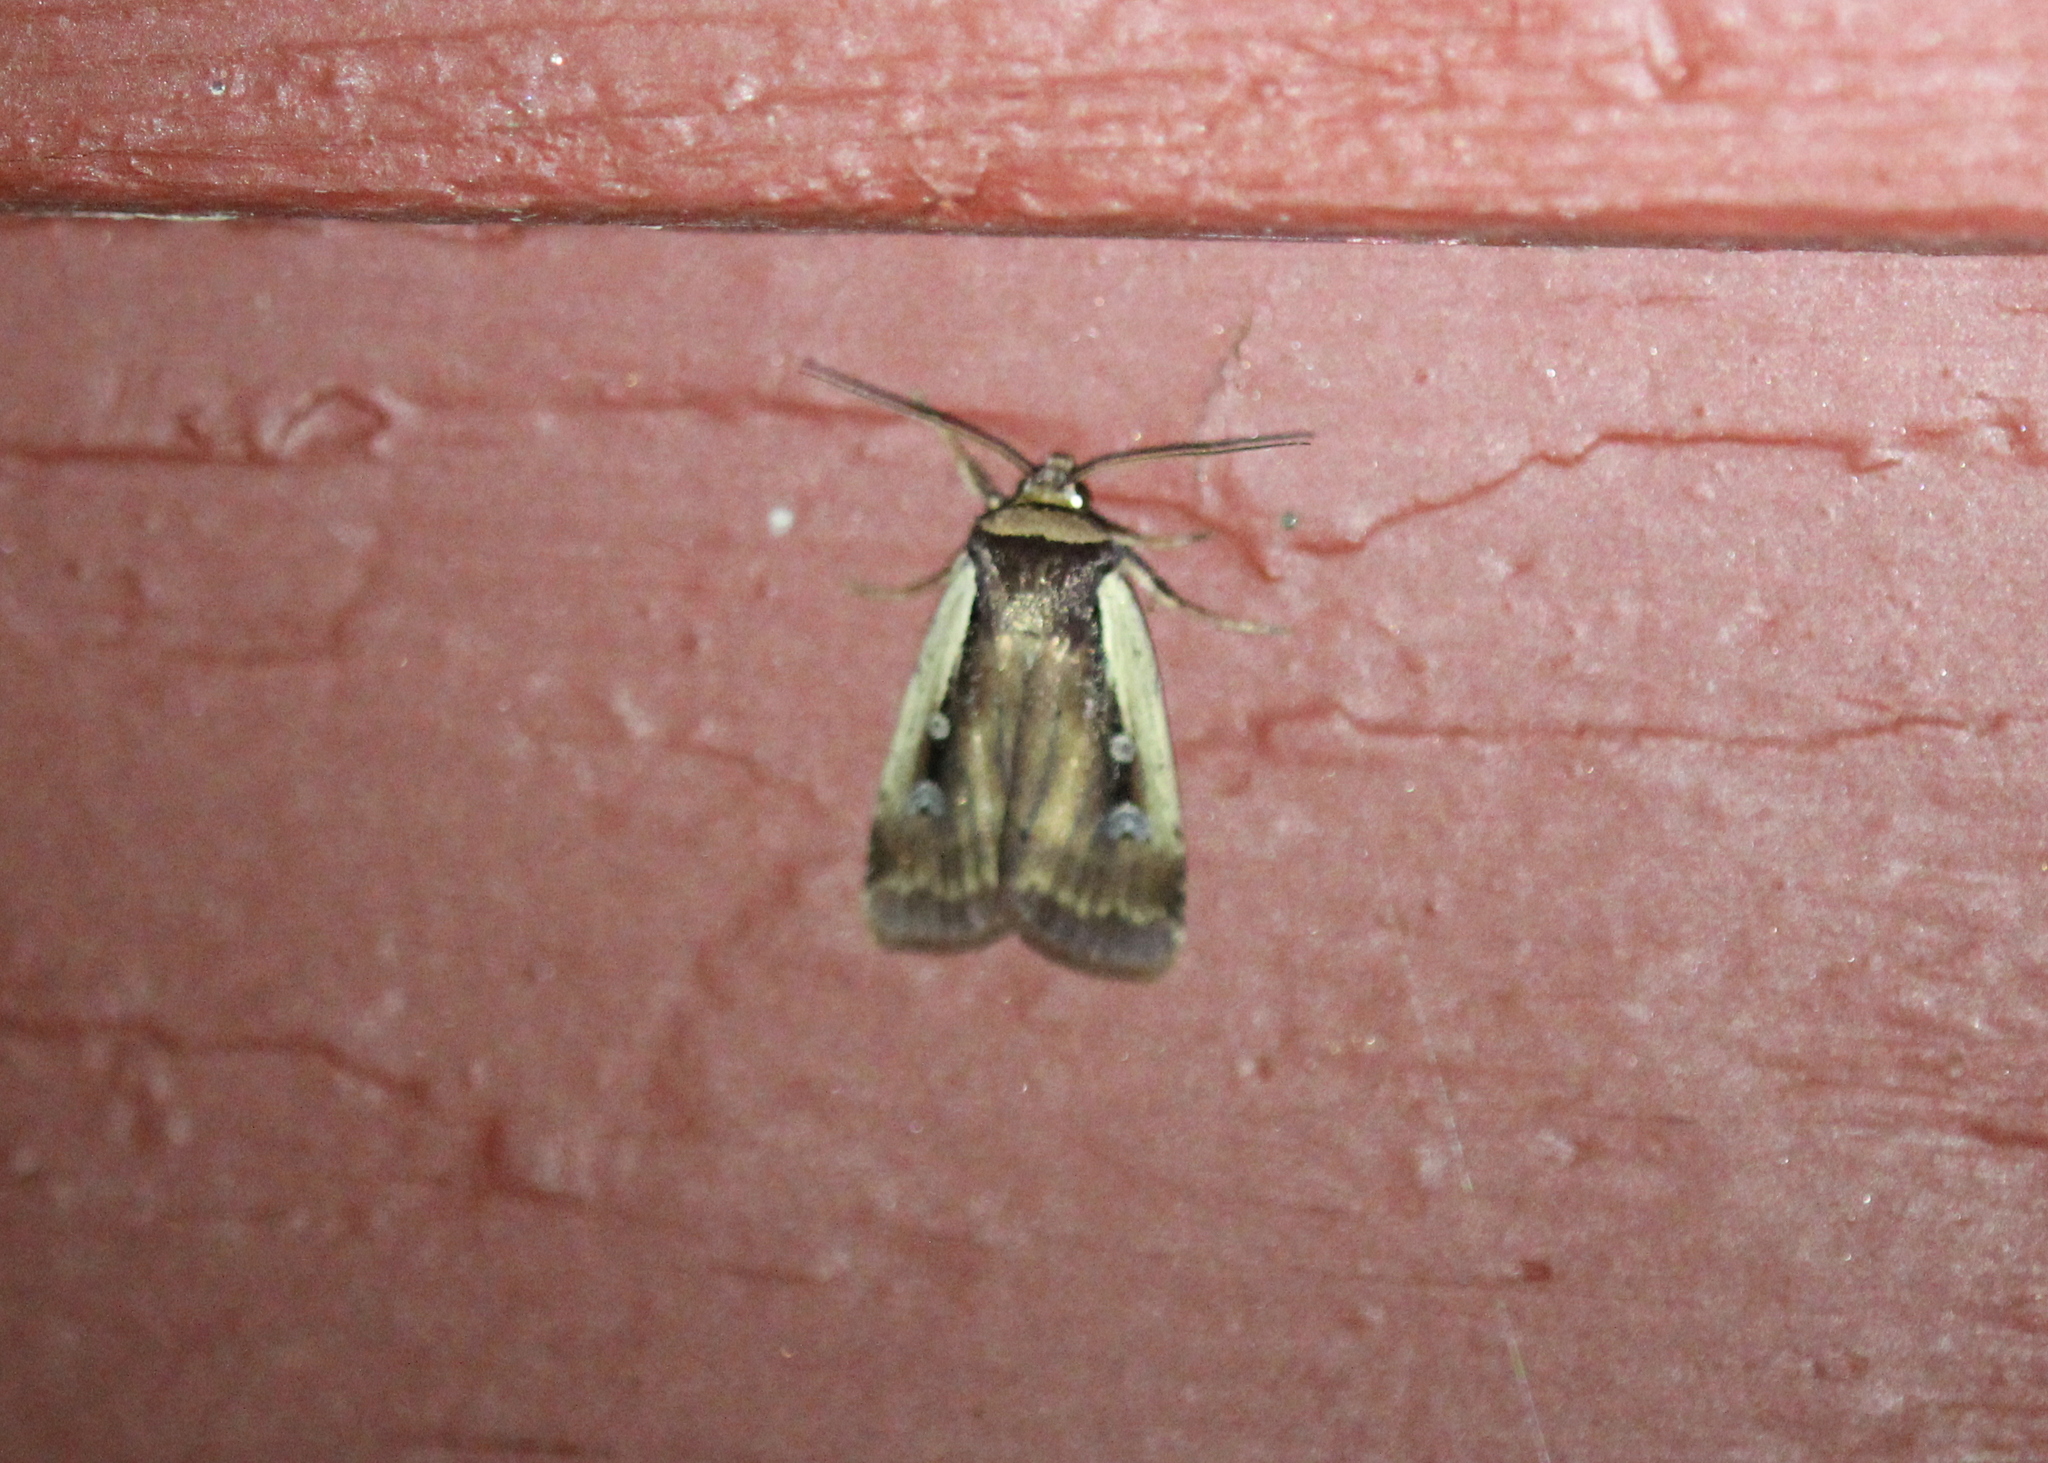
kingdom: Animalia
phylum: Arthropoda
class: Insecta
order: Lepidoptera
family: Noctuidae
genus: Ochropleura
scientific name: Ochropleura implecta
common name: Flame-shouldered dart
